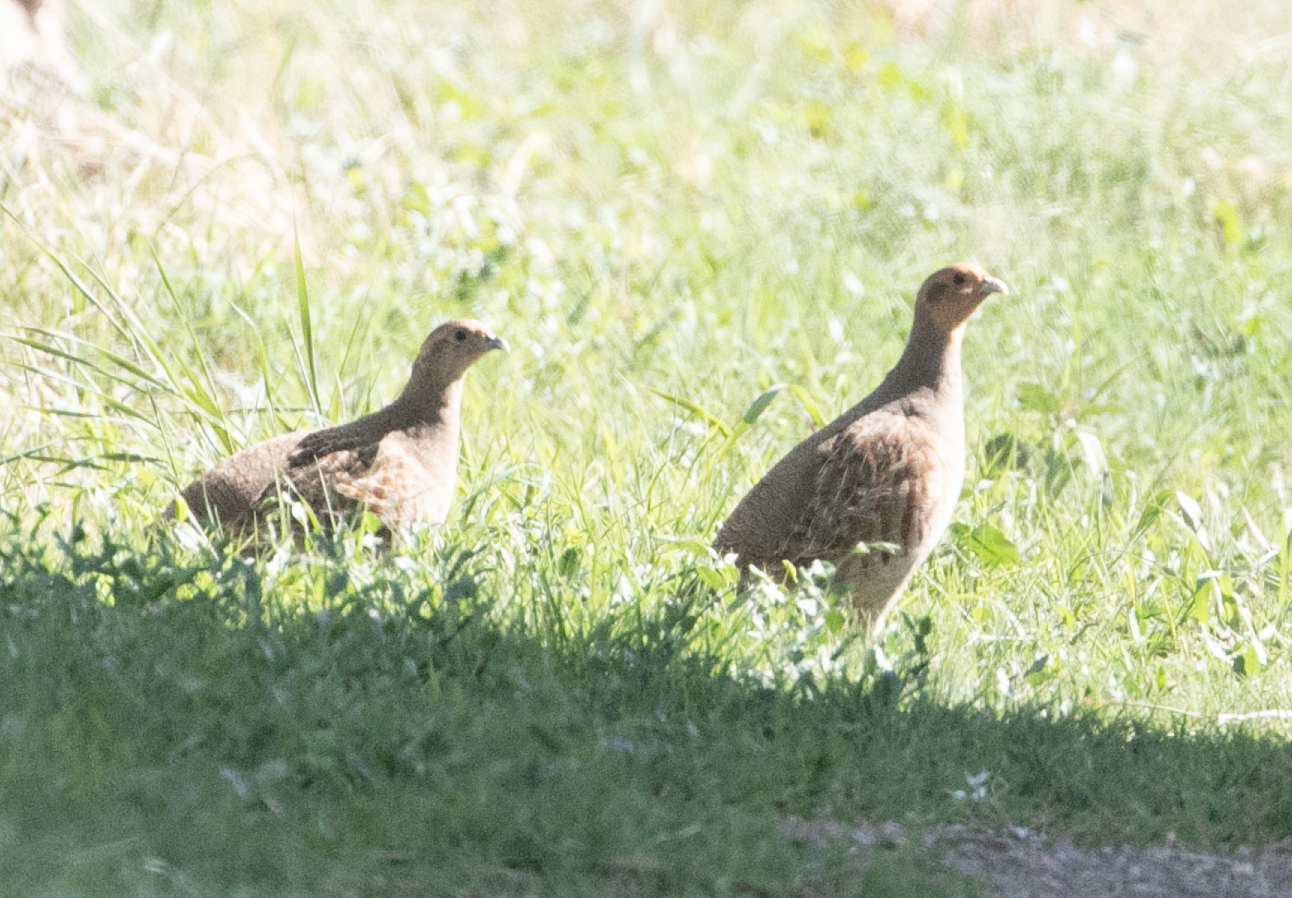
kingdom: Animalia
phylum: Chordata
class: Aves
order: Galliformes
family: Phasianidae
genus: Perdix
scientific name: Perdix perdix
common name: Grey partridge
